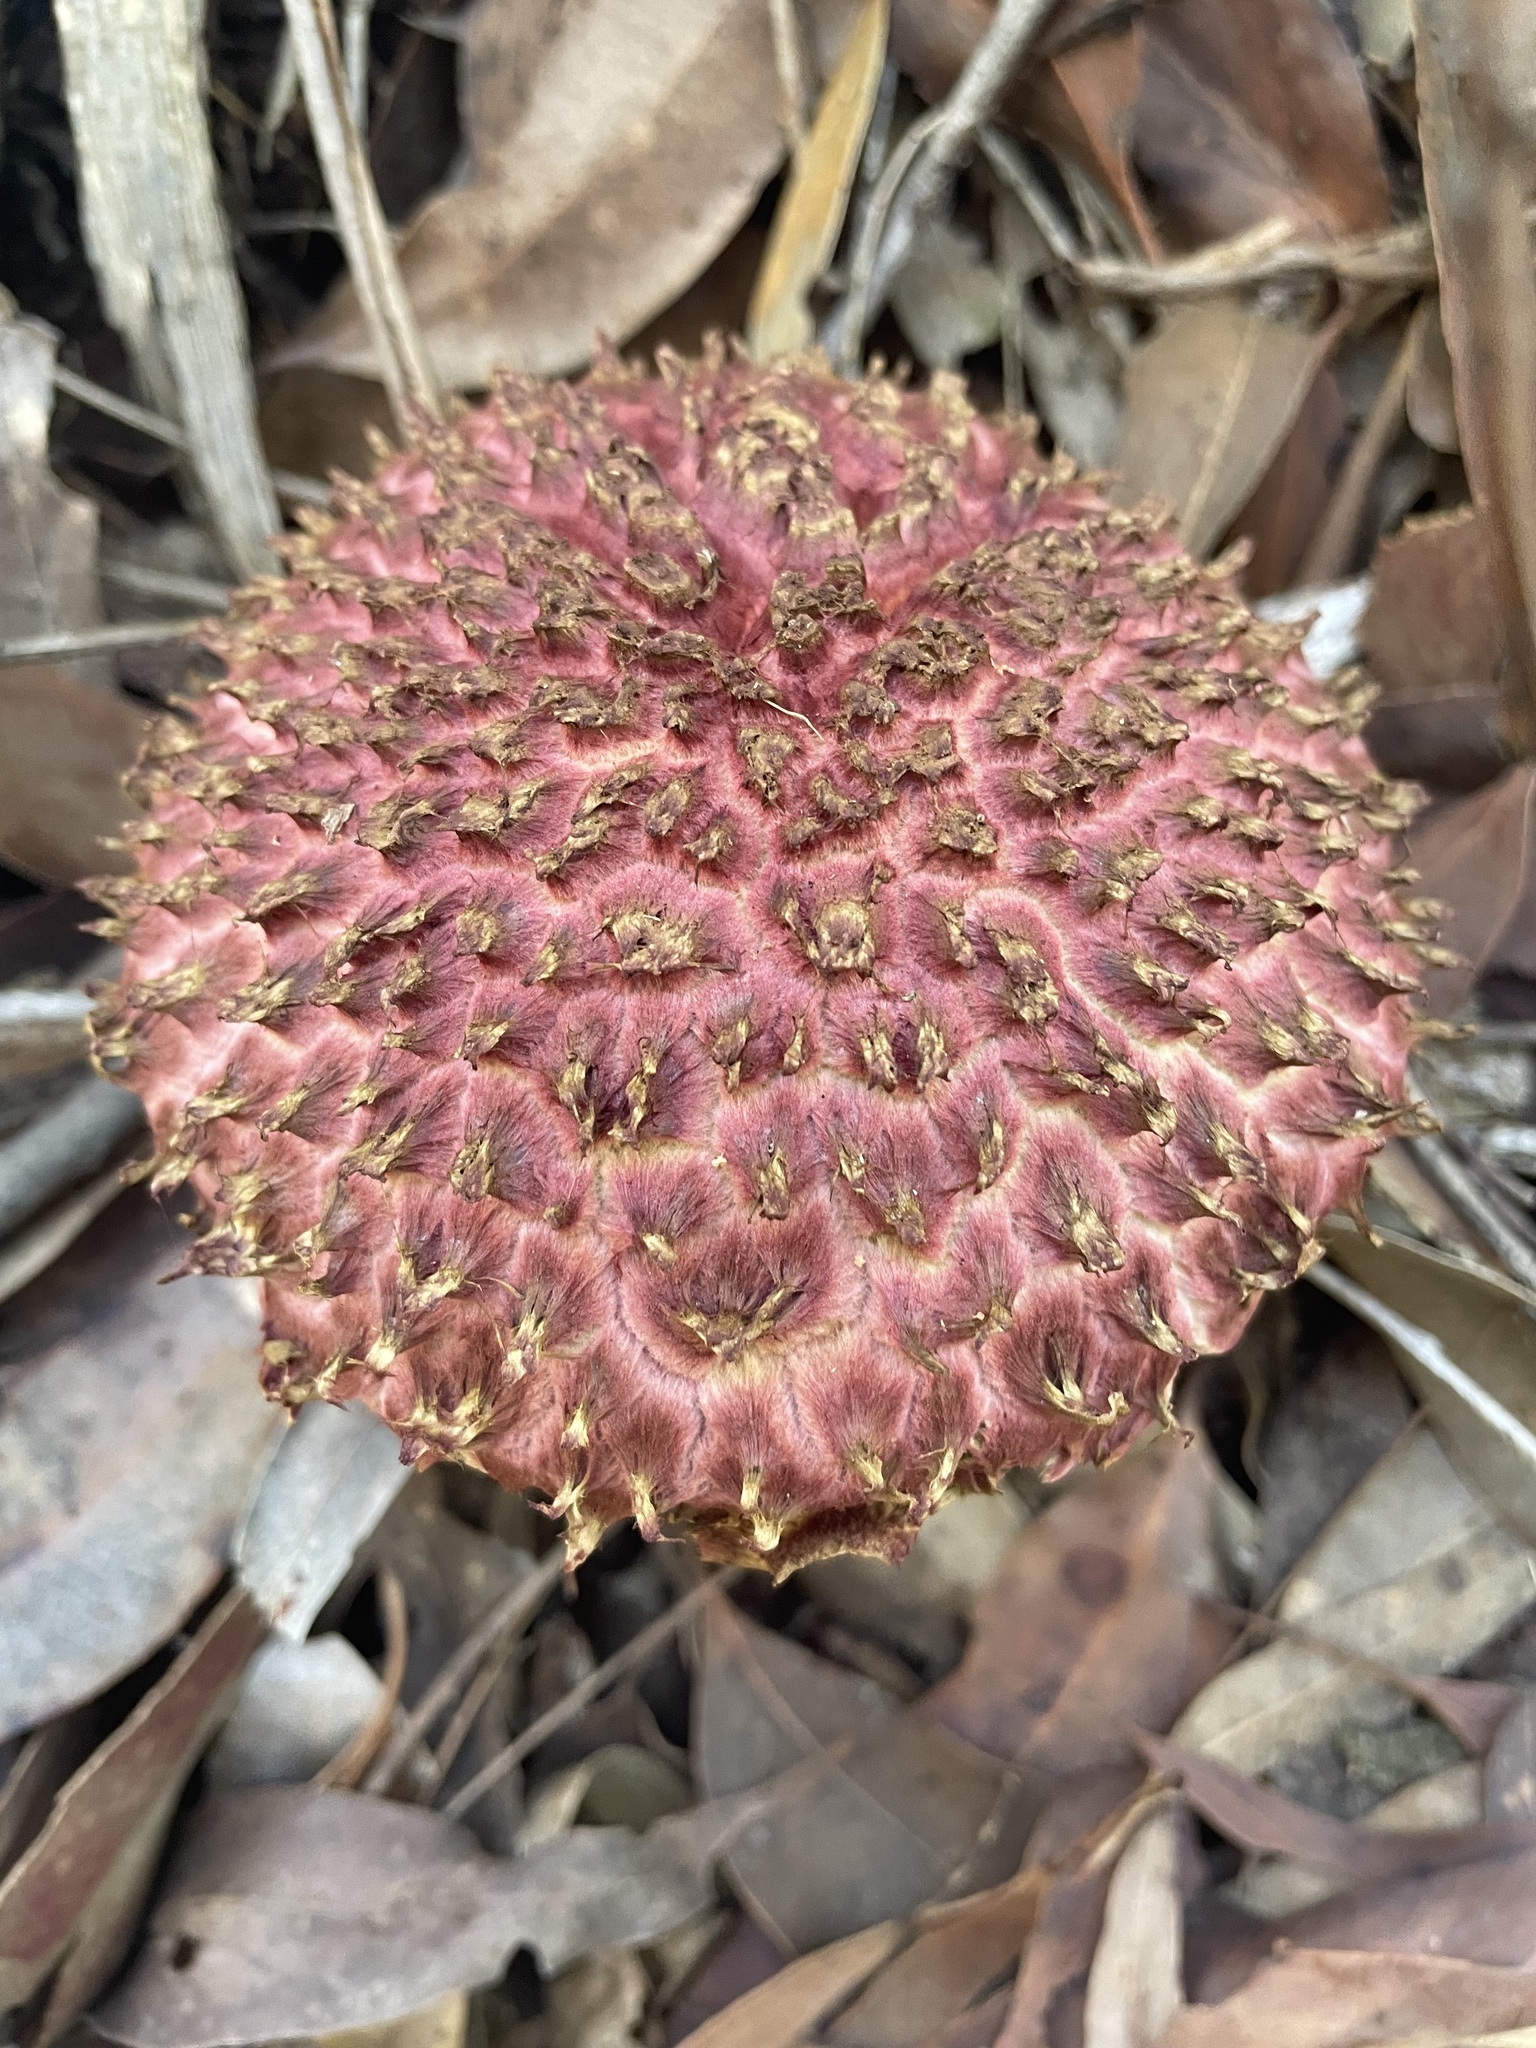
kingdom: Fungi
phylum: Basidiomycota
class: Agaricomycetes
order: Boletales
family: Boletaceae
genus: Boletellus
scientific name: Boletellus emodensis
